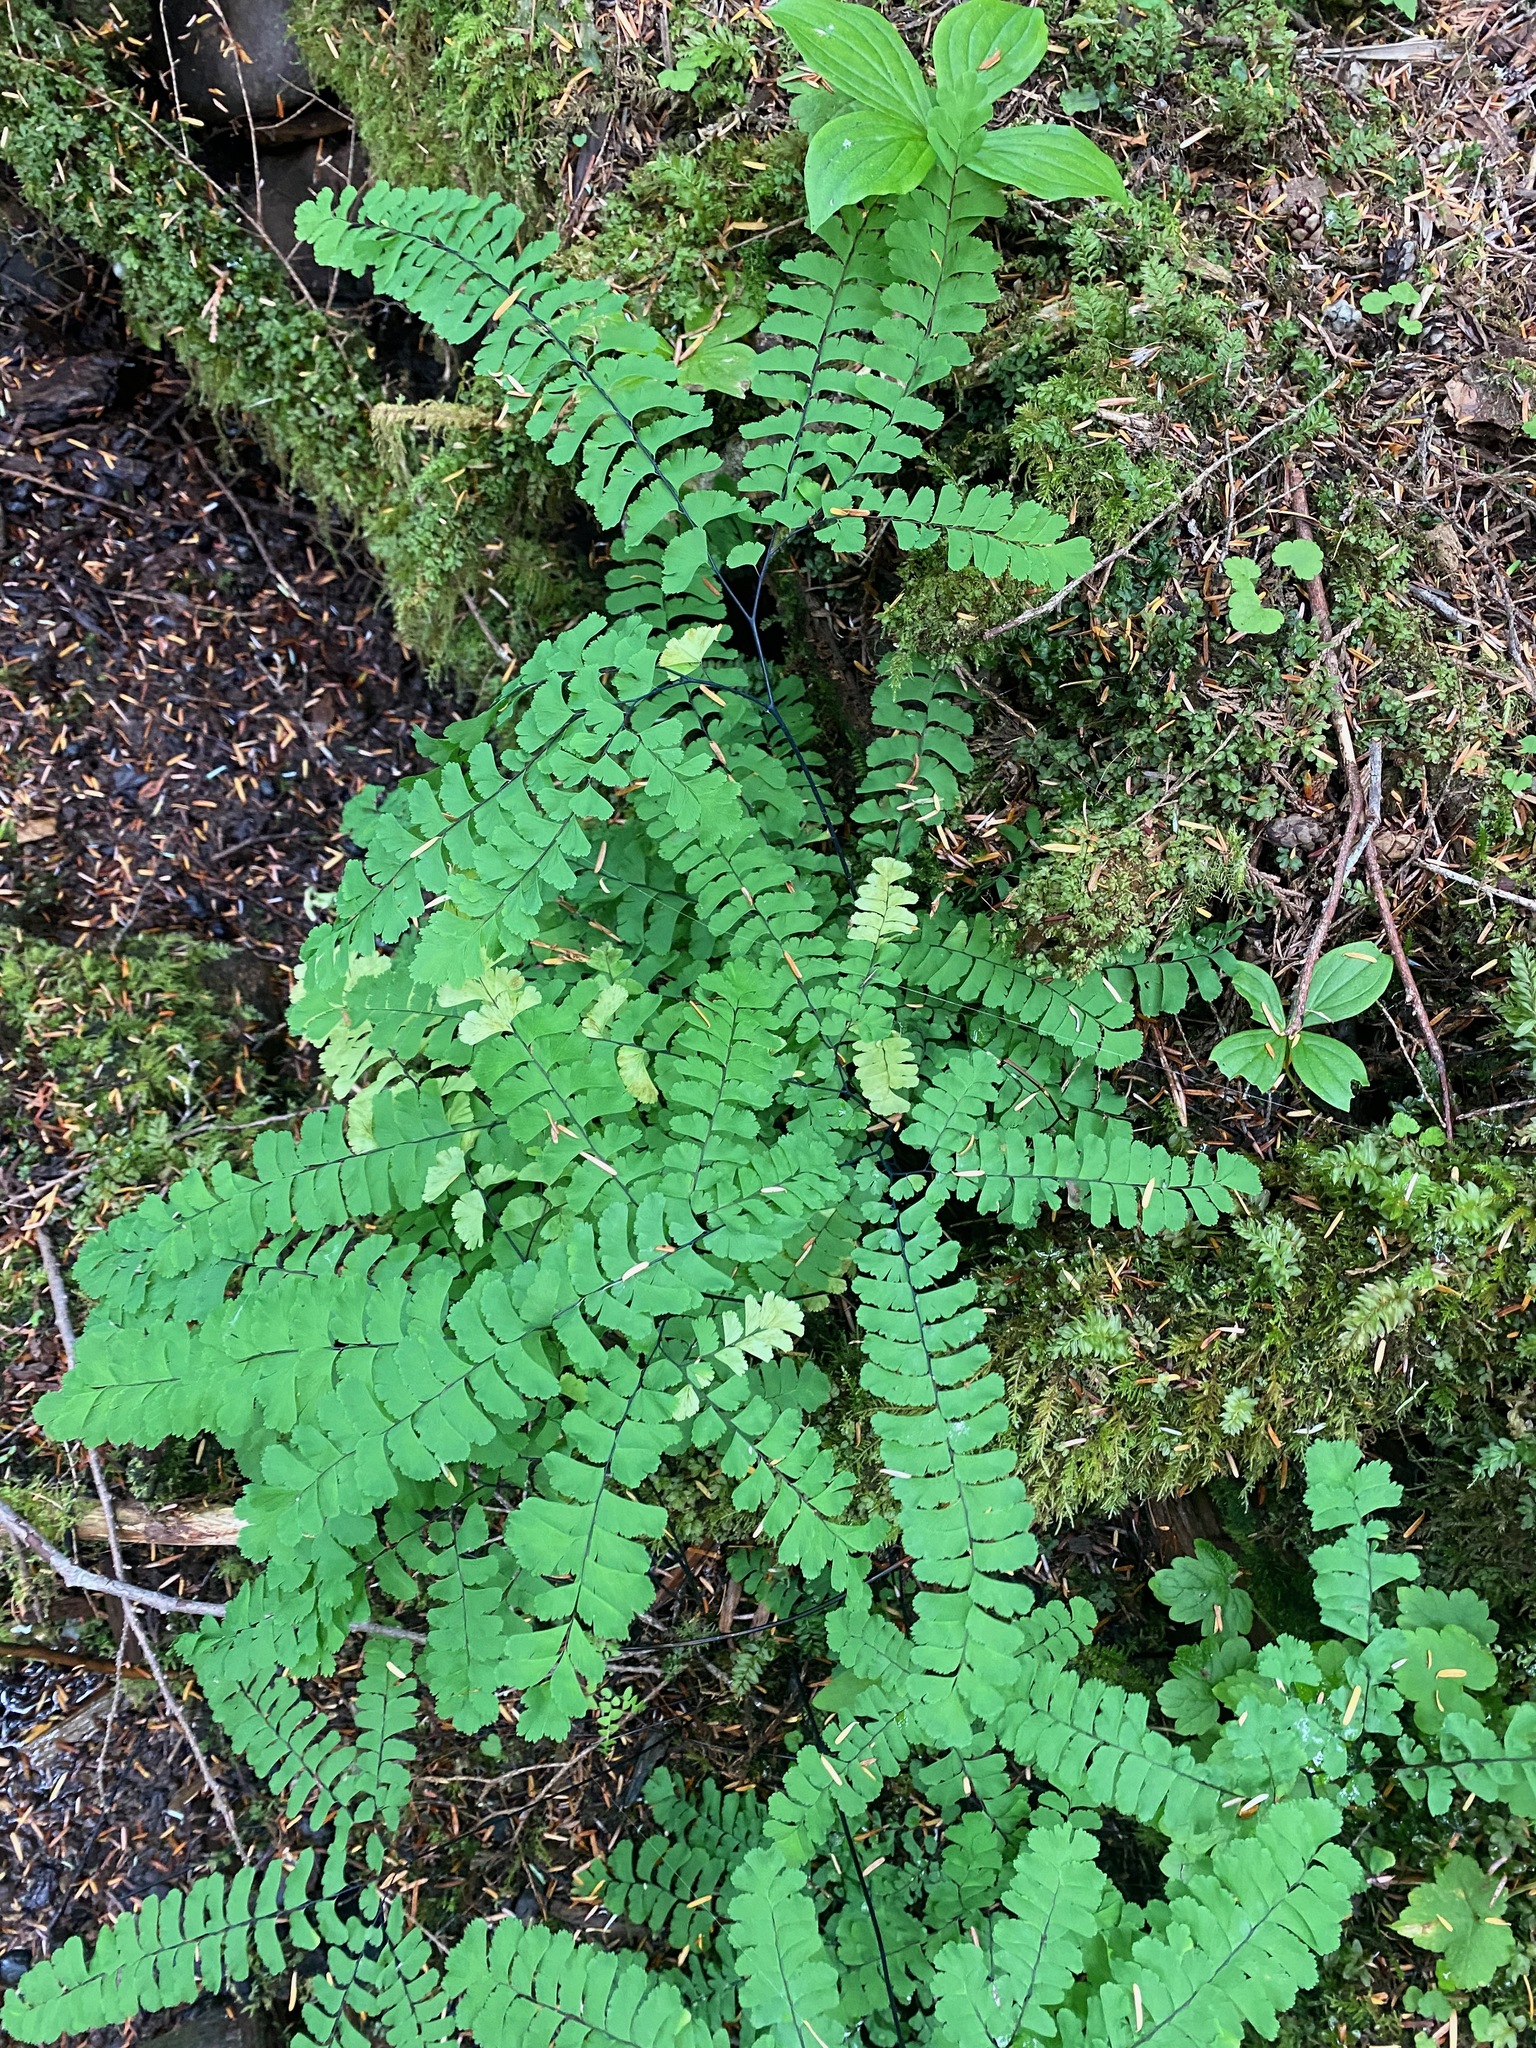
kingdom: Plantae
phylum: Tracheophyta
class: Polypodiopsida
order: Polypodiales
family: Pteridaceae
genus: Adiantum
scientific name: Adiantum aleuticum
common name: Aleutian maidenhair fern
